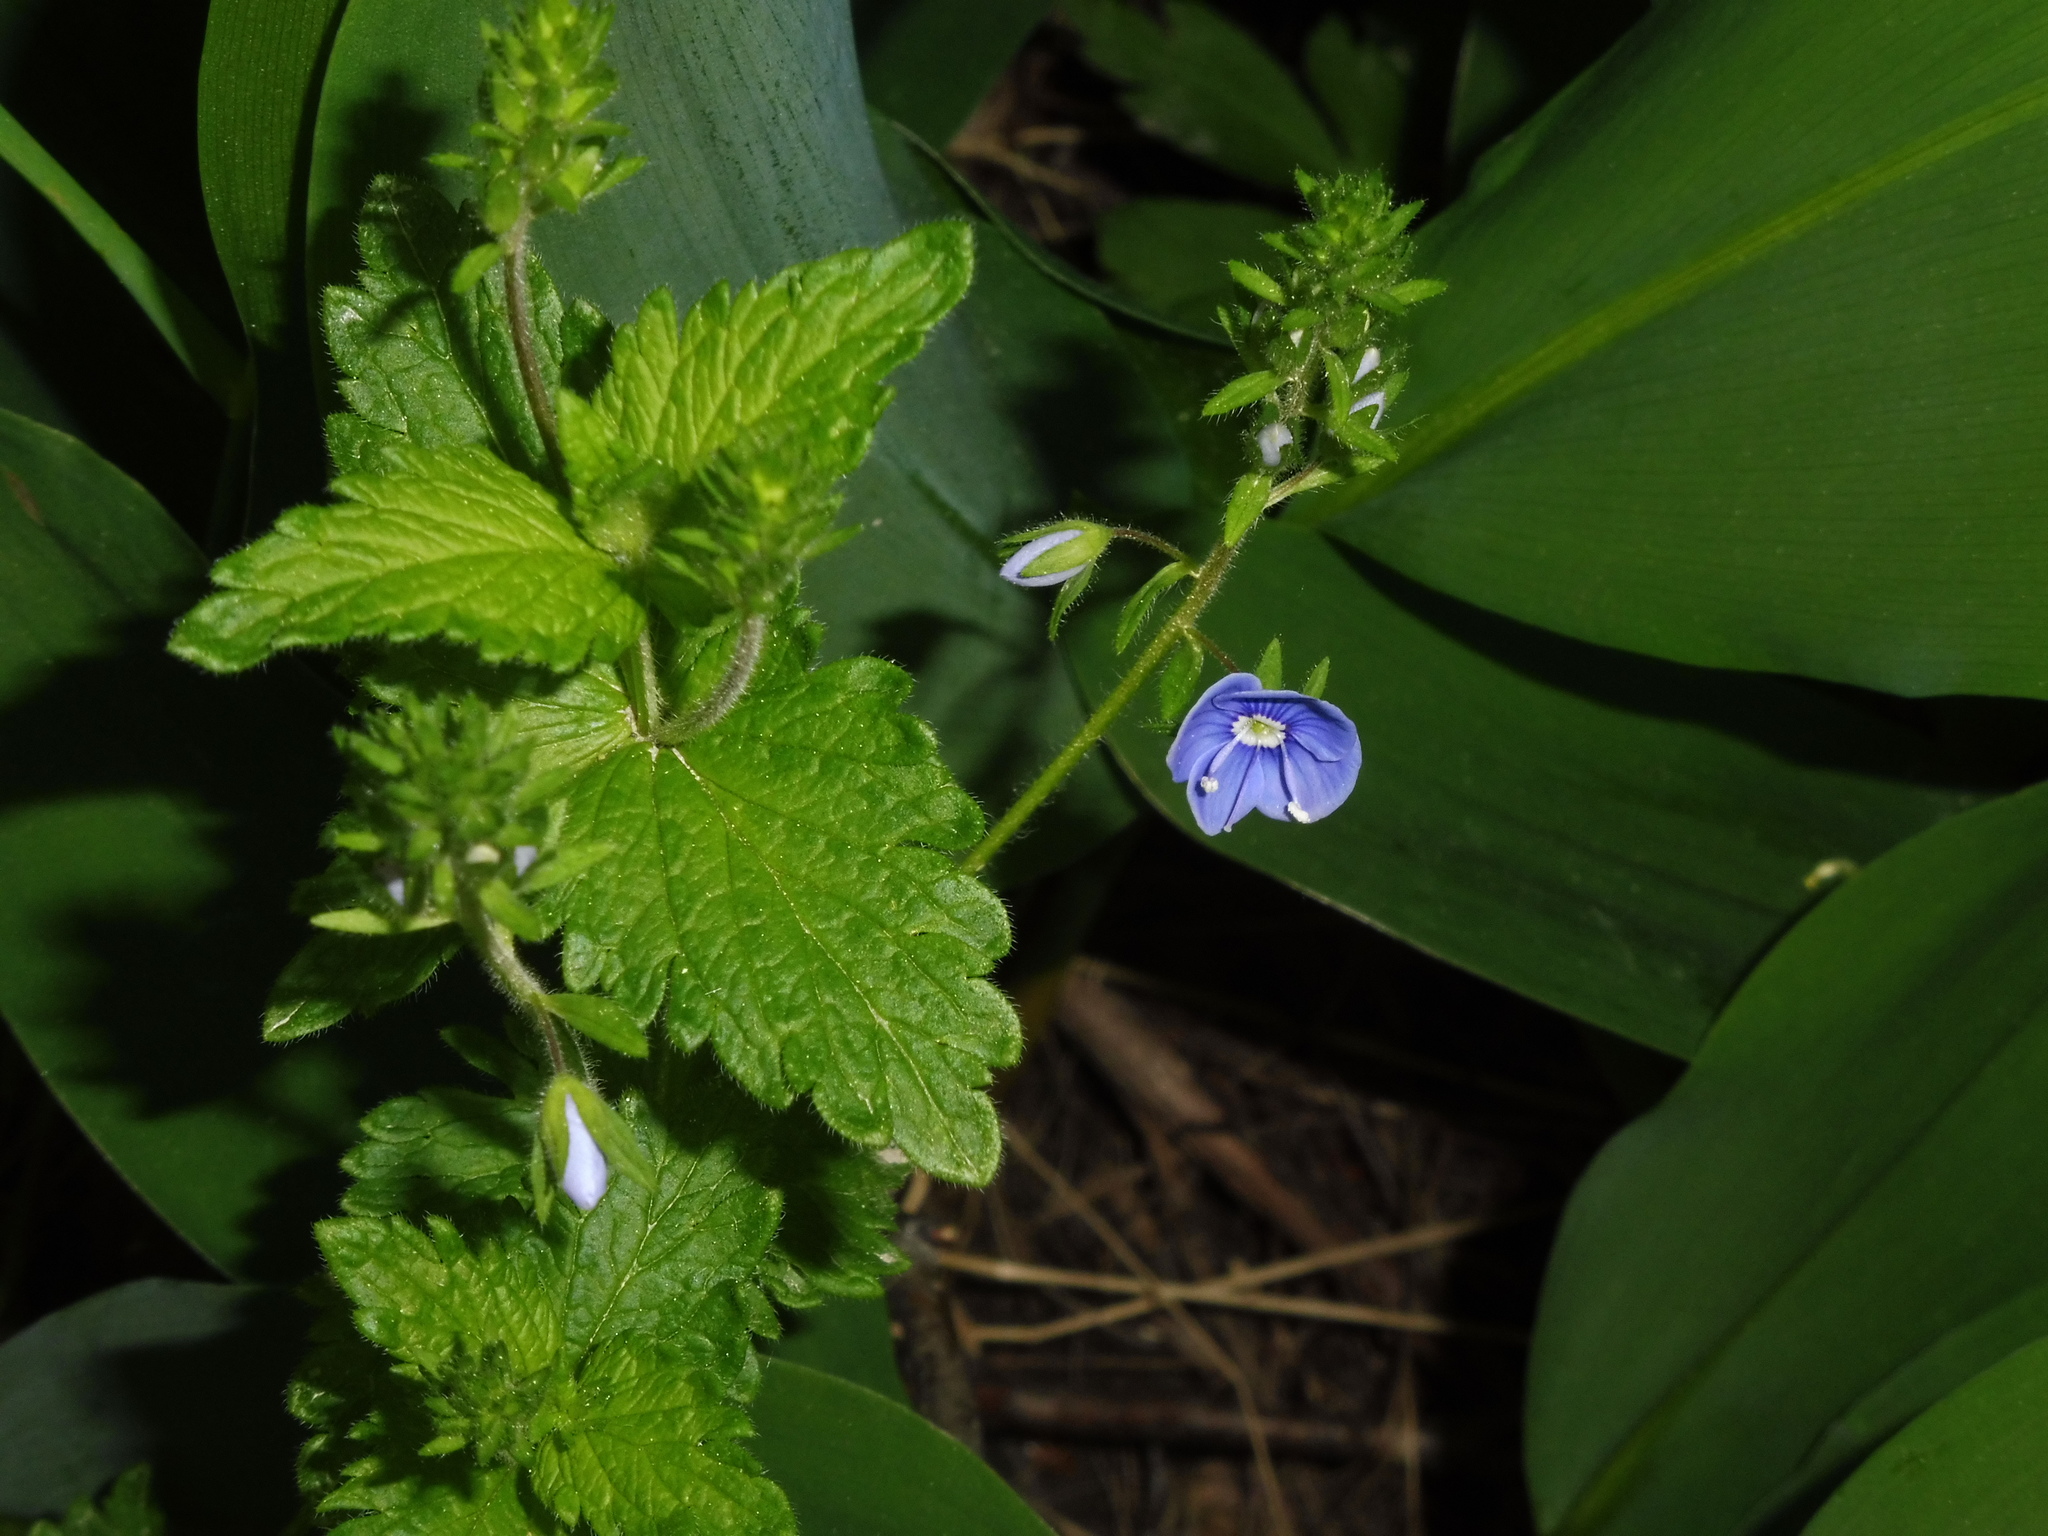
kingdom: Plantae
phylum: Tracheophyta
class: Magnoliopsida
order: Lamiales
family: Plantaginaceae
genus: Veronica
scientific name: Veronica chamaedrys
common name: Germander speedwell
